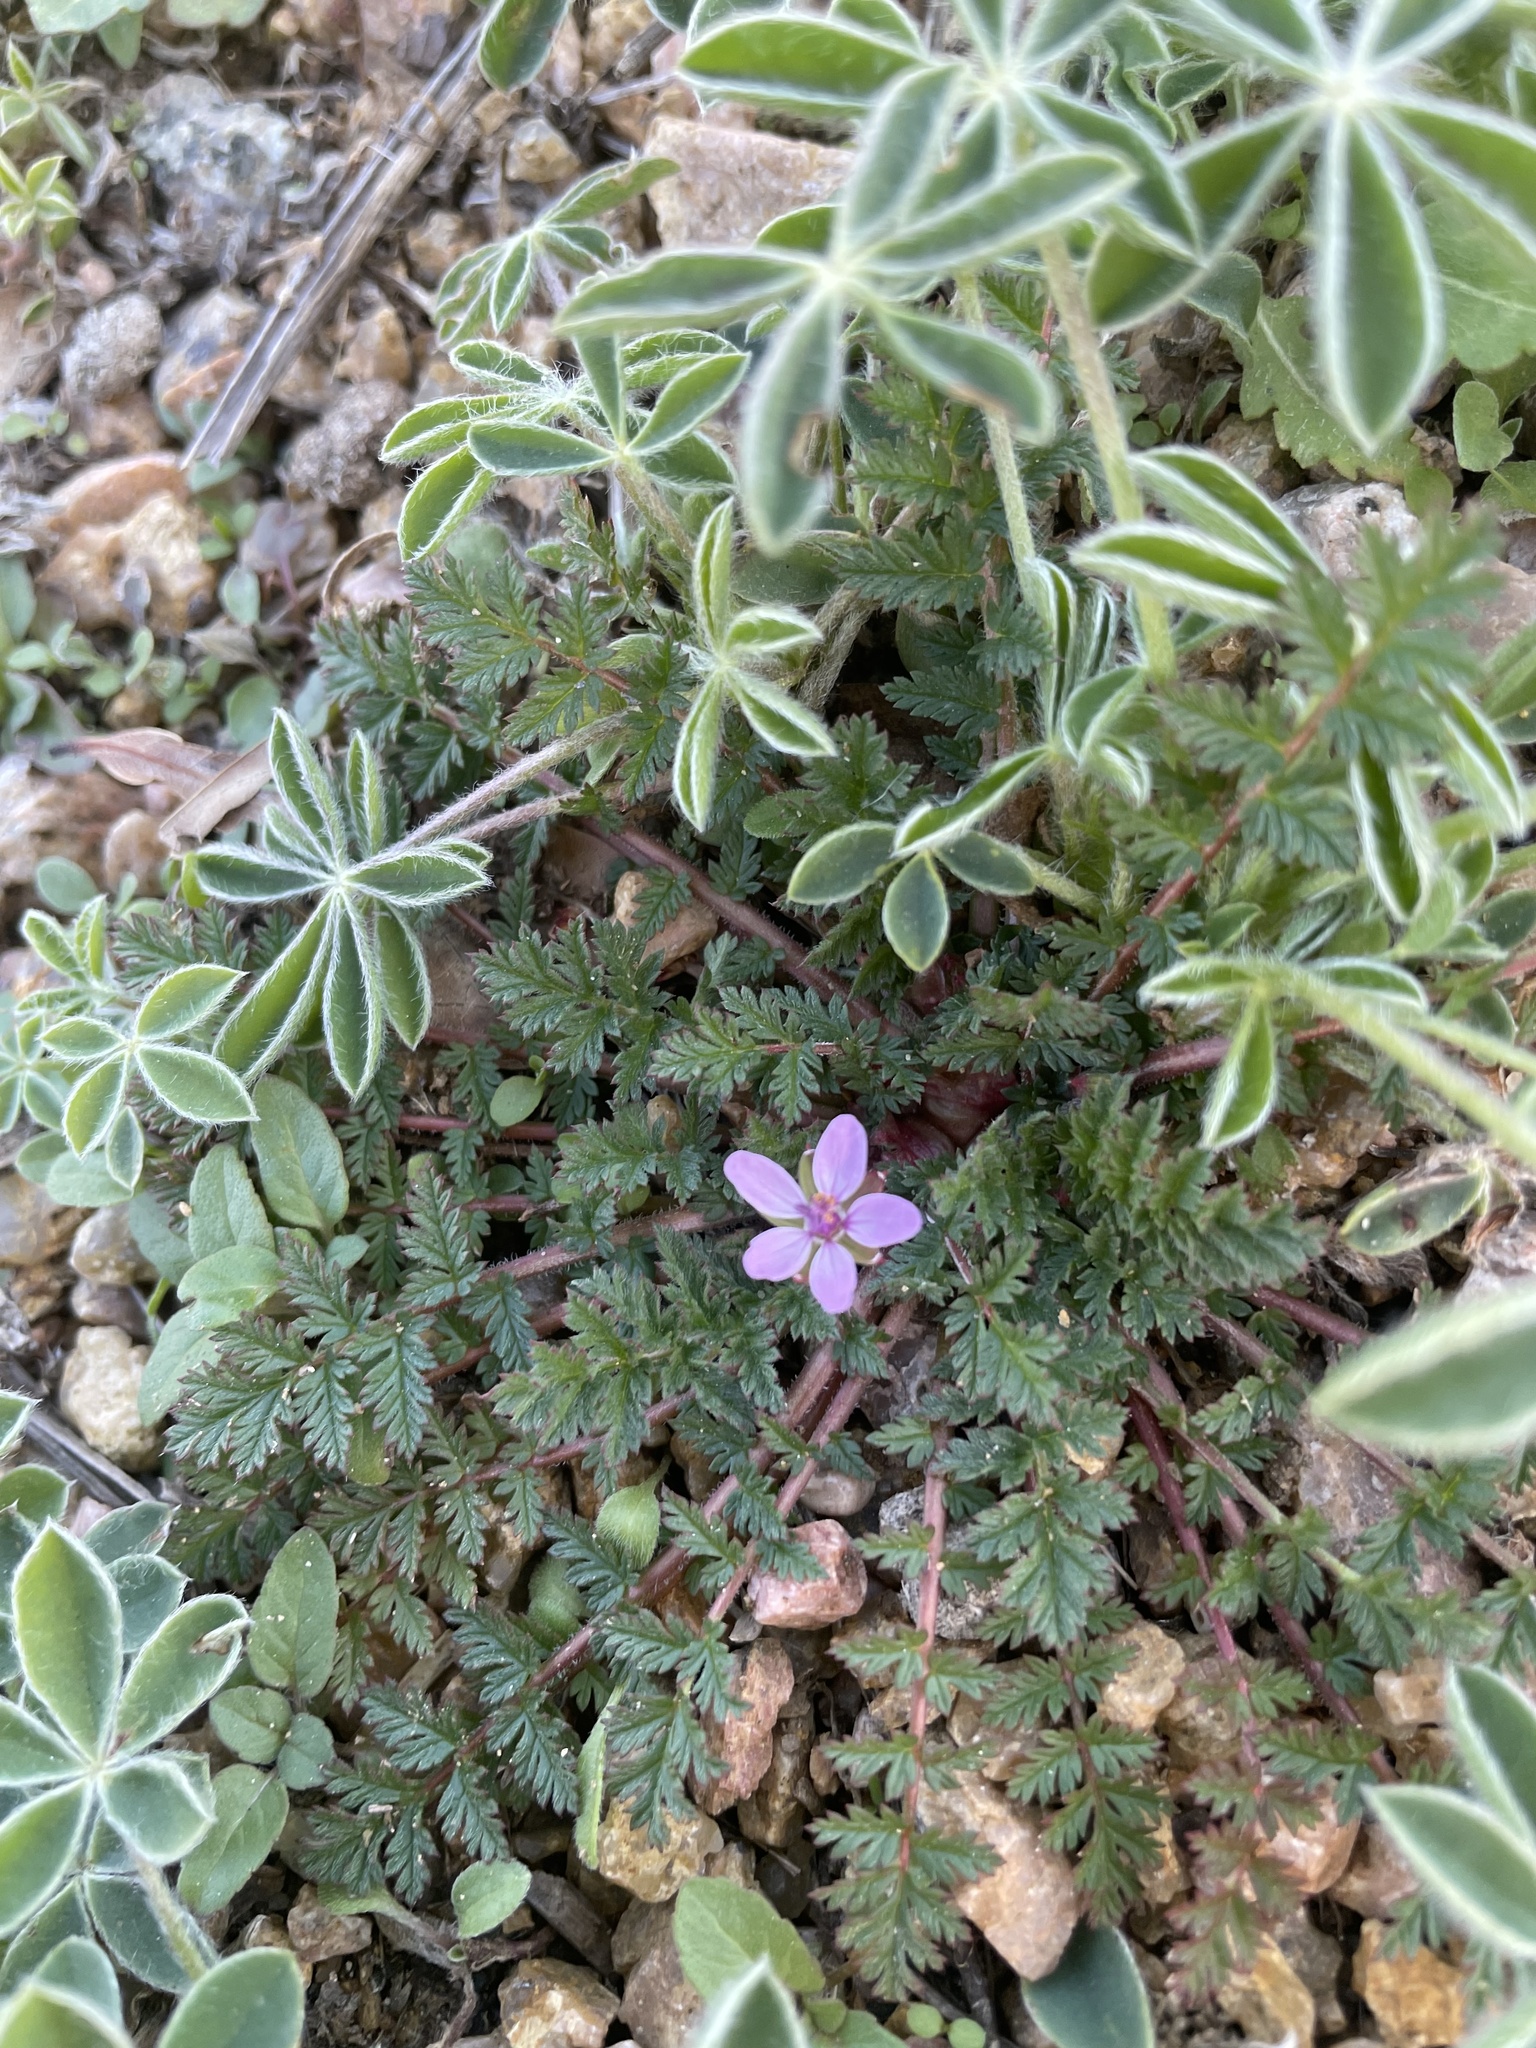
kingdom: Plantae
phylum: Tracheophyta
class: Magnoliopsida
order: Geraniales
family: Geraniaceae
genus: Erodium
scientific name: Erodium cicutarium
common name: Common stork's-bill
